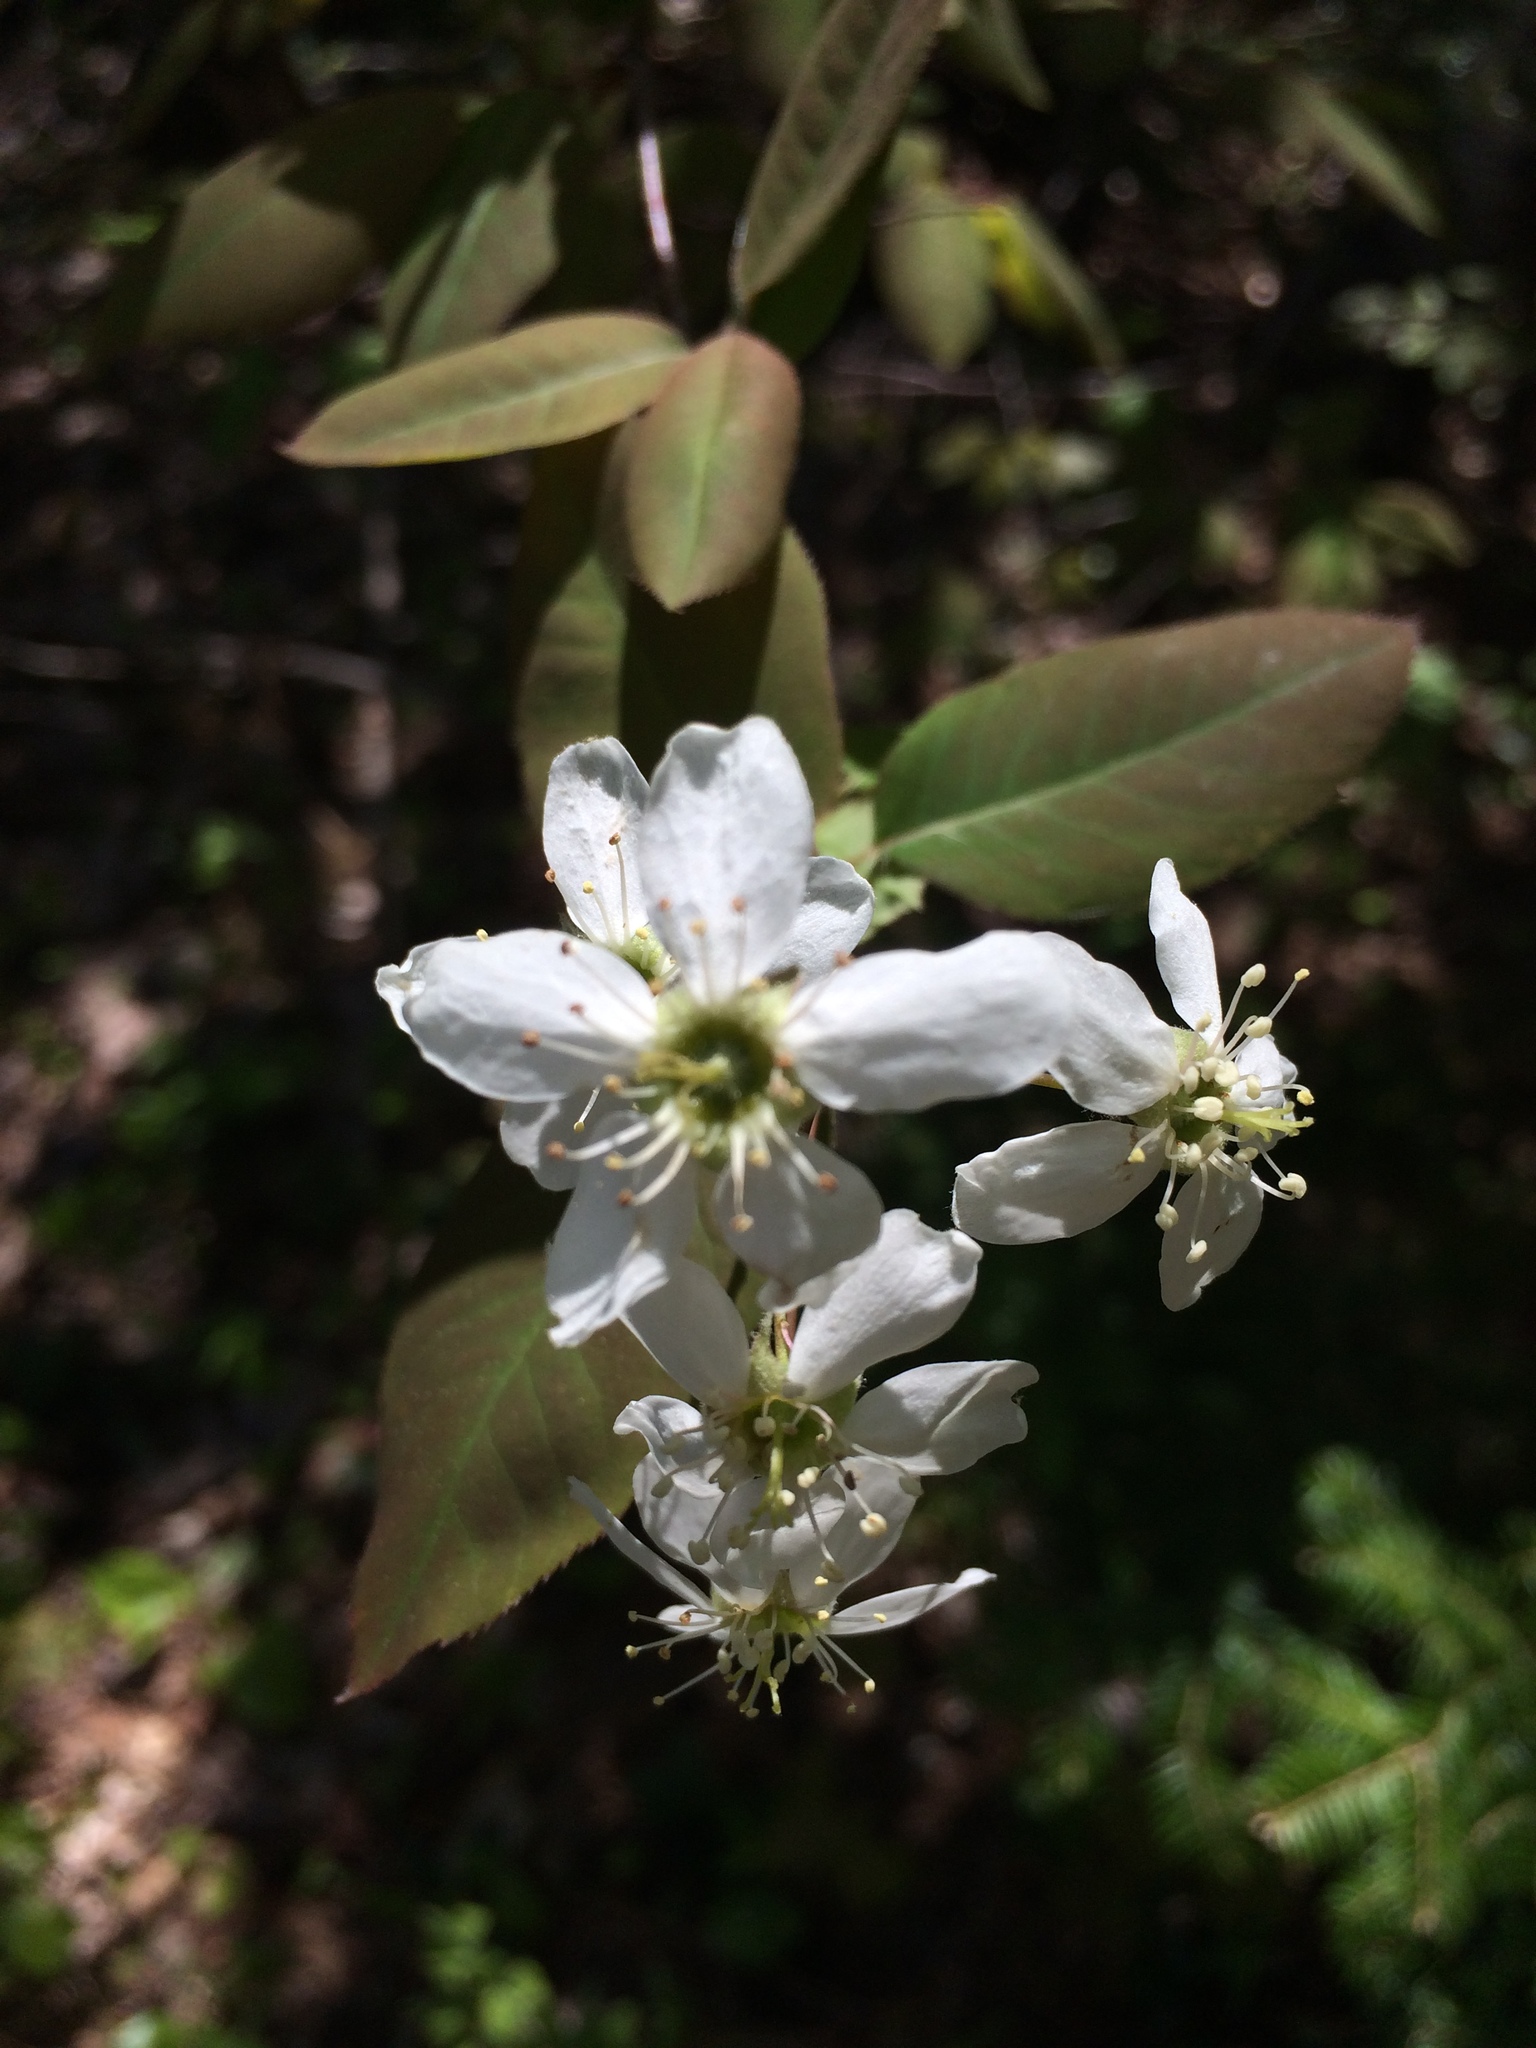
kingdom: Plantae
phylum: Tracheophyta
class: Magnoliopsida
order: Rosales
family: Rosaceae
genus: Amelanchier
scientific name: Amelanchier bartramiana
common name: Mountain serviceberry
